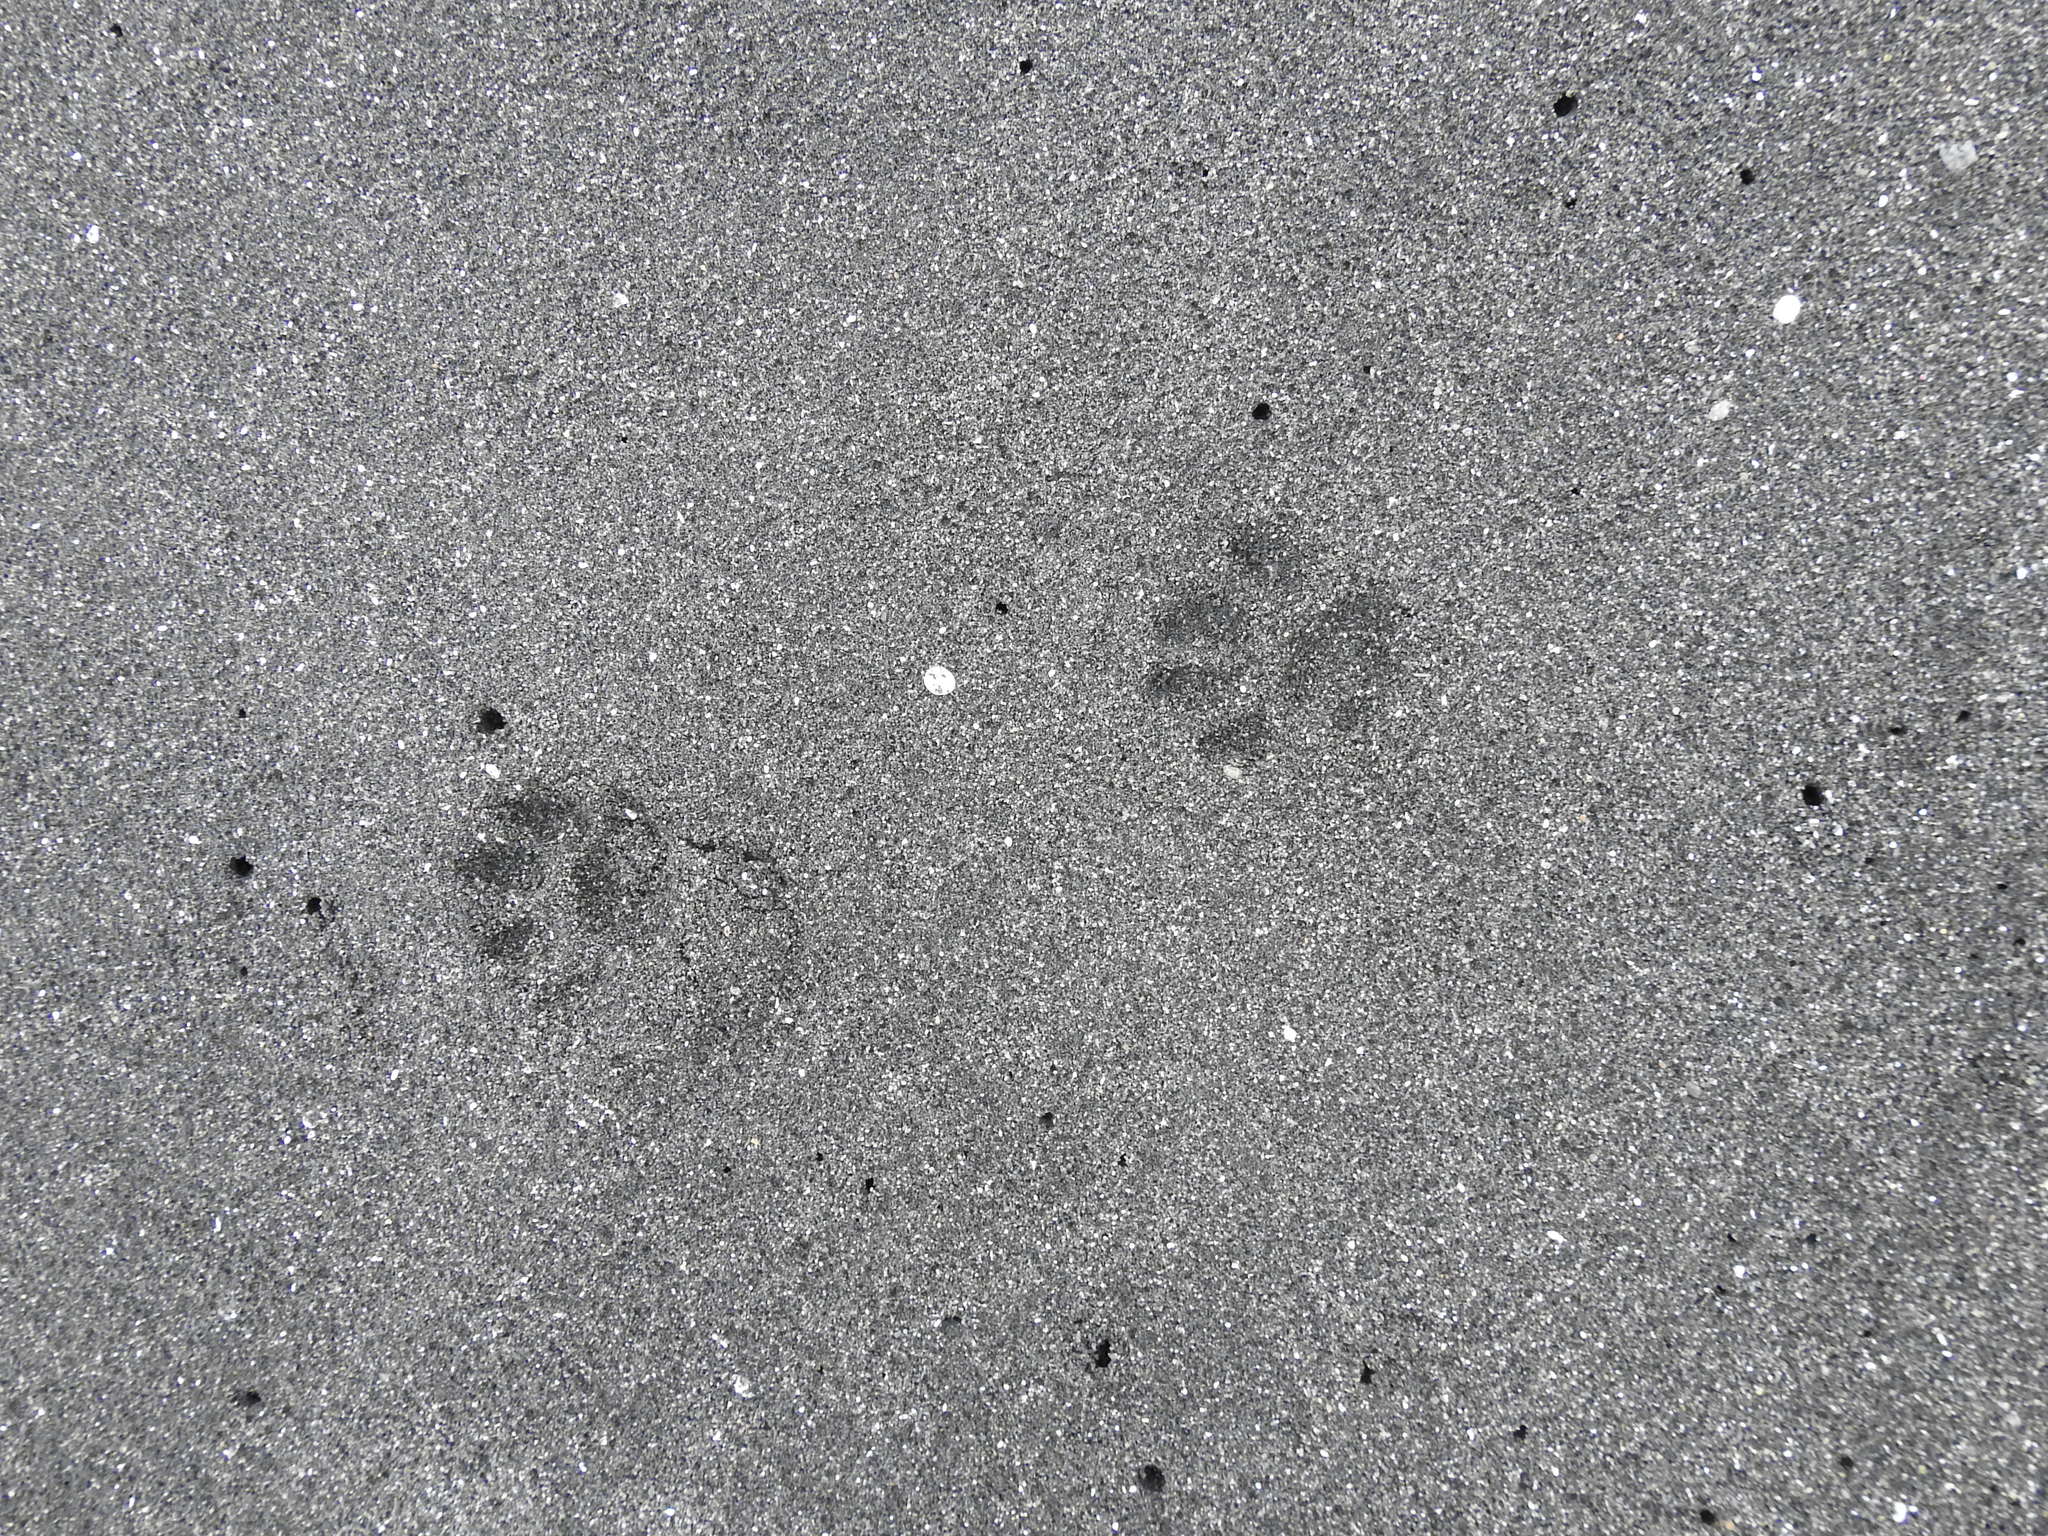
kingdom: Animalia
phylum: Chordata
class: Mammalia
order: Carnivora
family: Felidae
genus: Felis
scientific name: Felis catus
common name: Domestic cat
